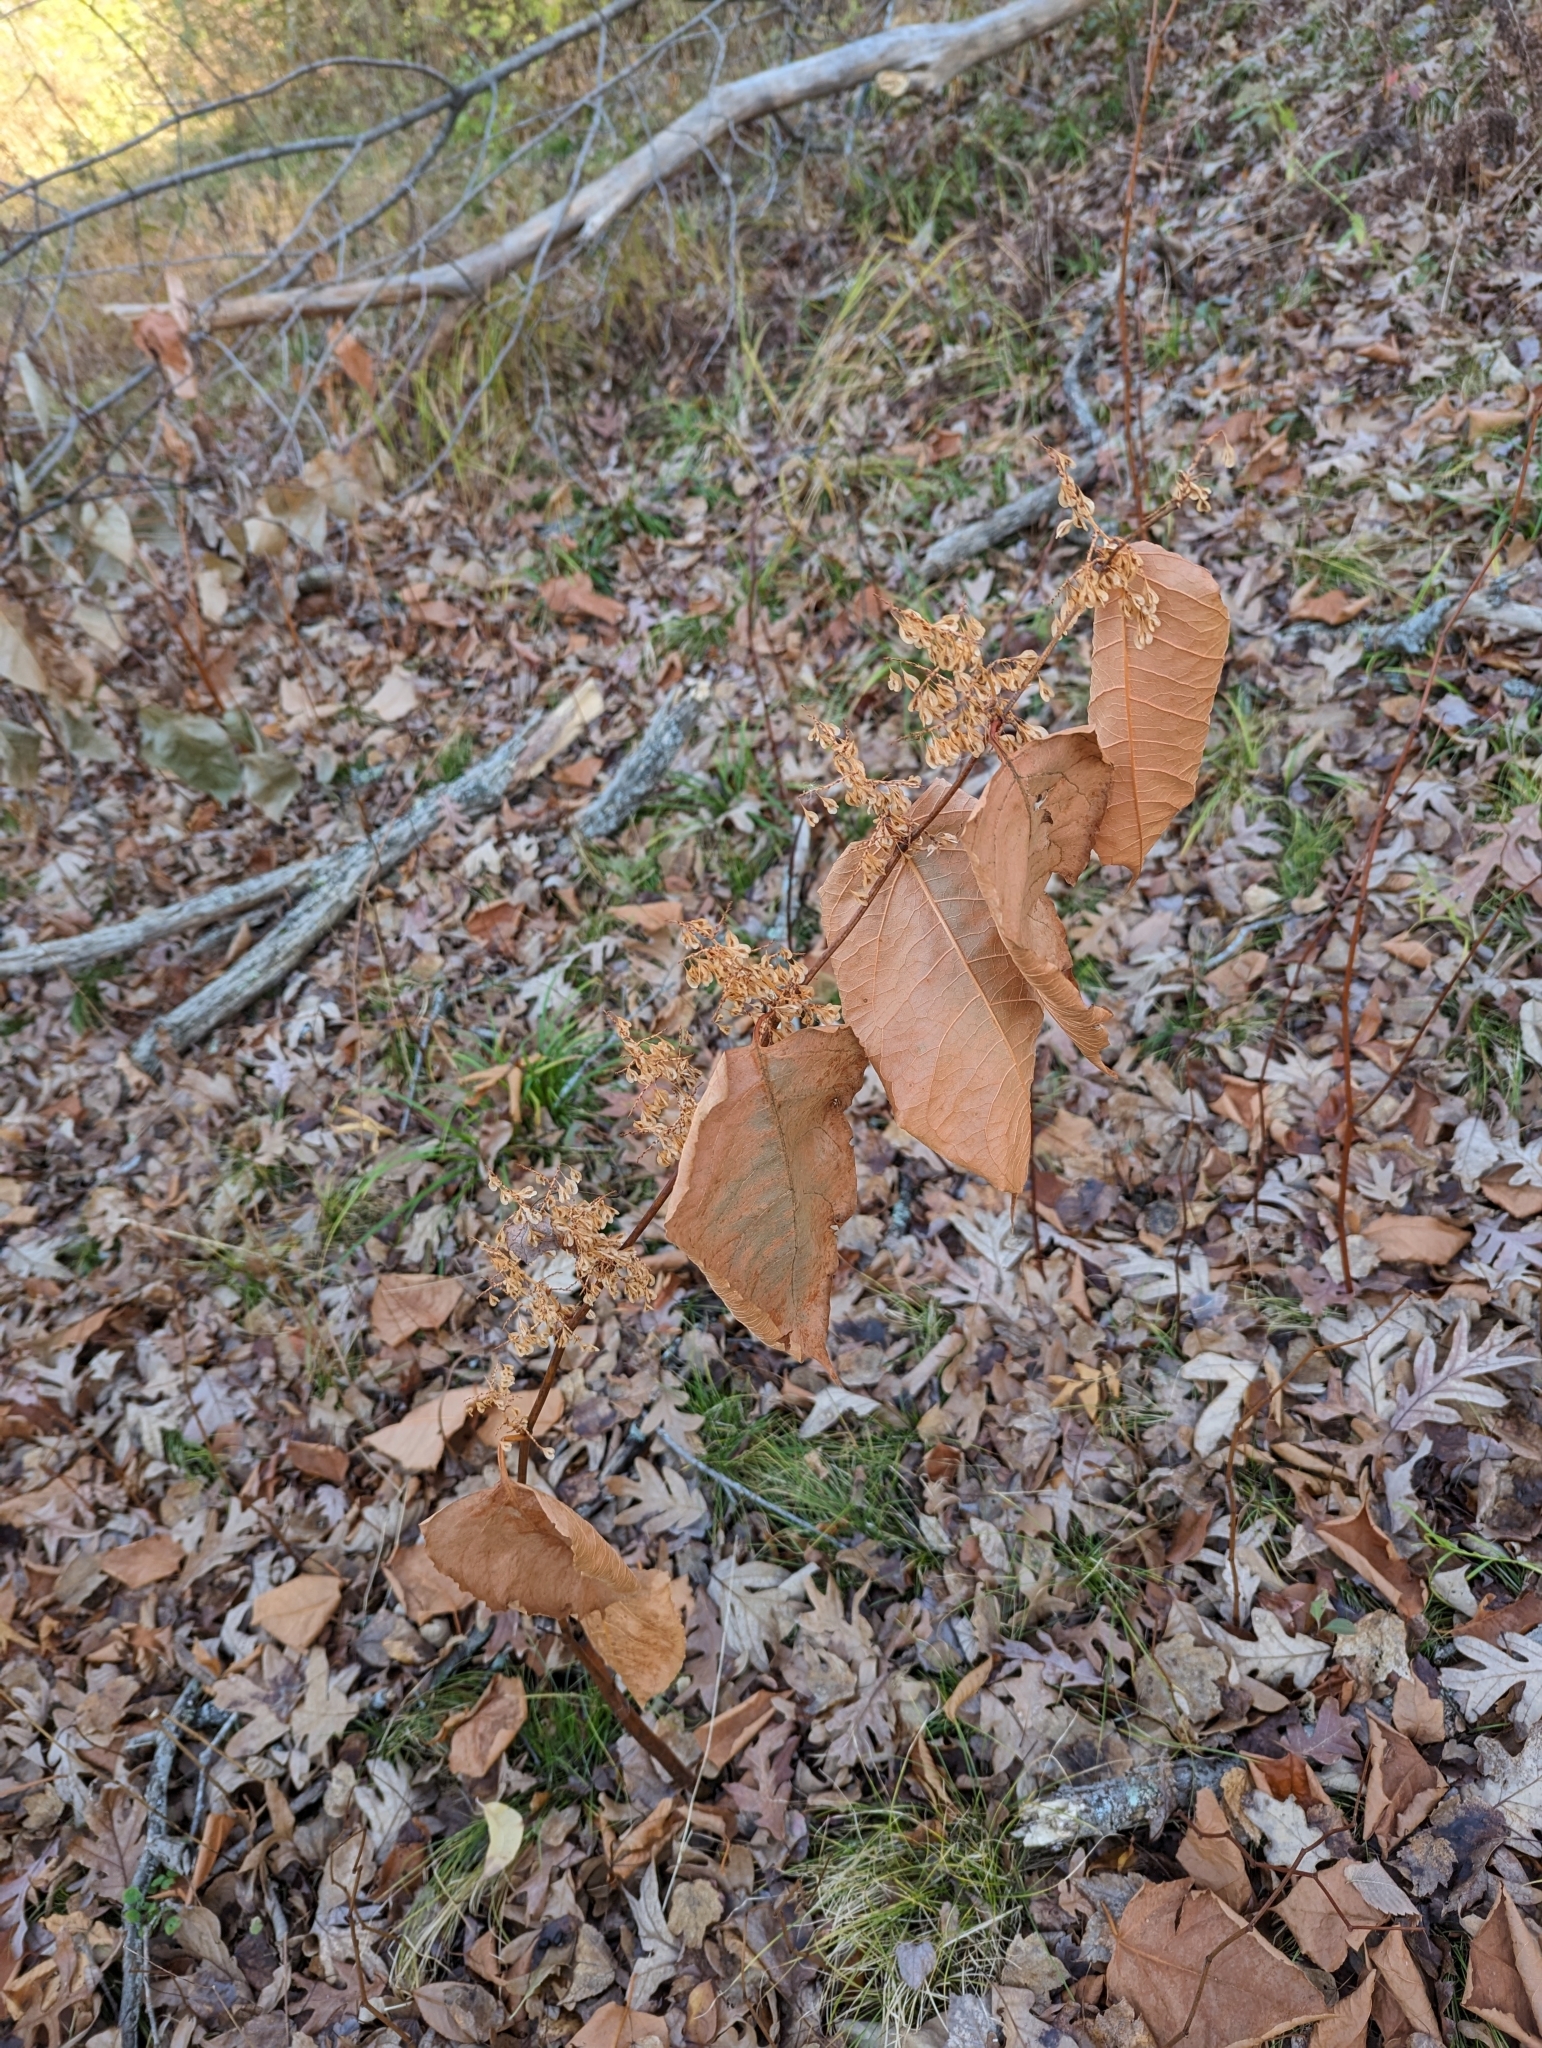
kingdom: Plantae
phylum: Tracheophyta
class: Magnoliopsida
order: Caryophyllales
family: Polygonaceae
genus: Reynoutria
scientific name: Reynoutria japonica
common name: Japanese knotweed
